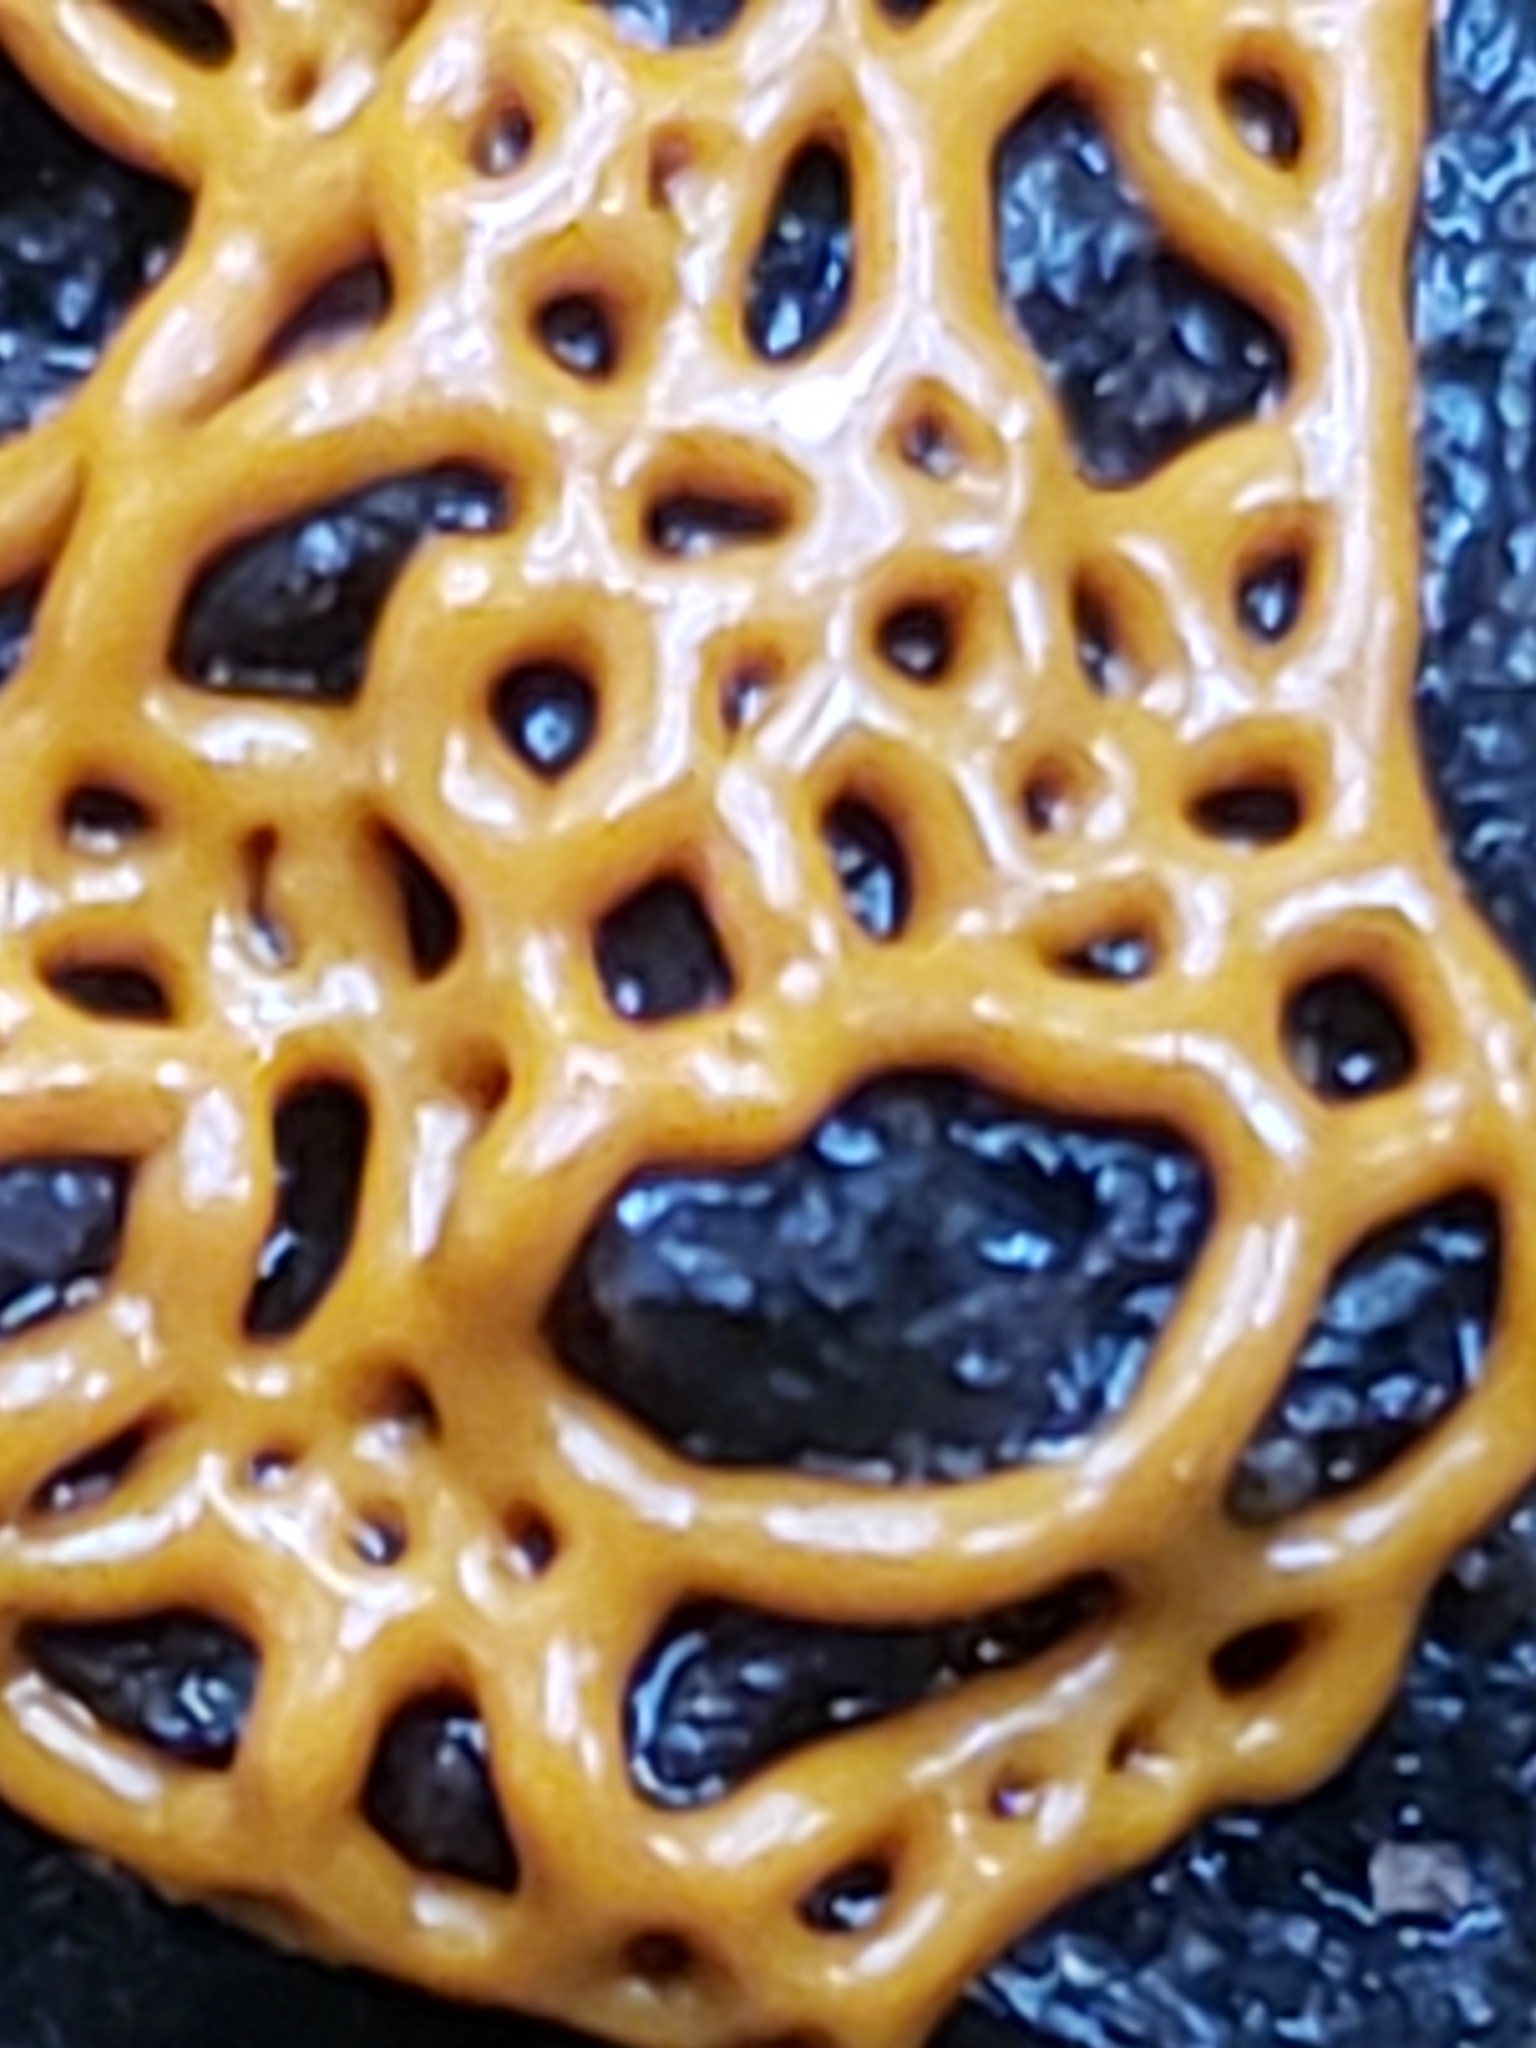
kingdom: Protozoa
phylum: Mycetozoa
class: Myxomycetes
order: Trichiales
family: Arcyriaceae
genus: Hemitrichia
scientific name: Hemitrichia serpula
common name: Pretzel slime mold
